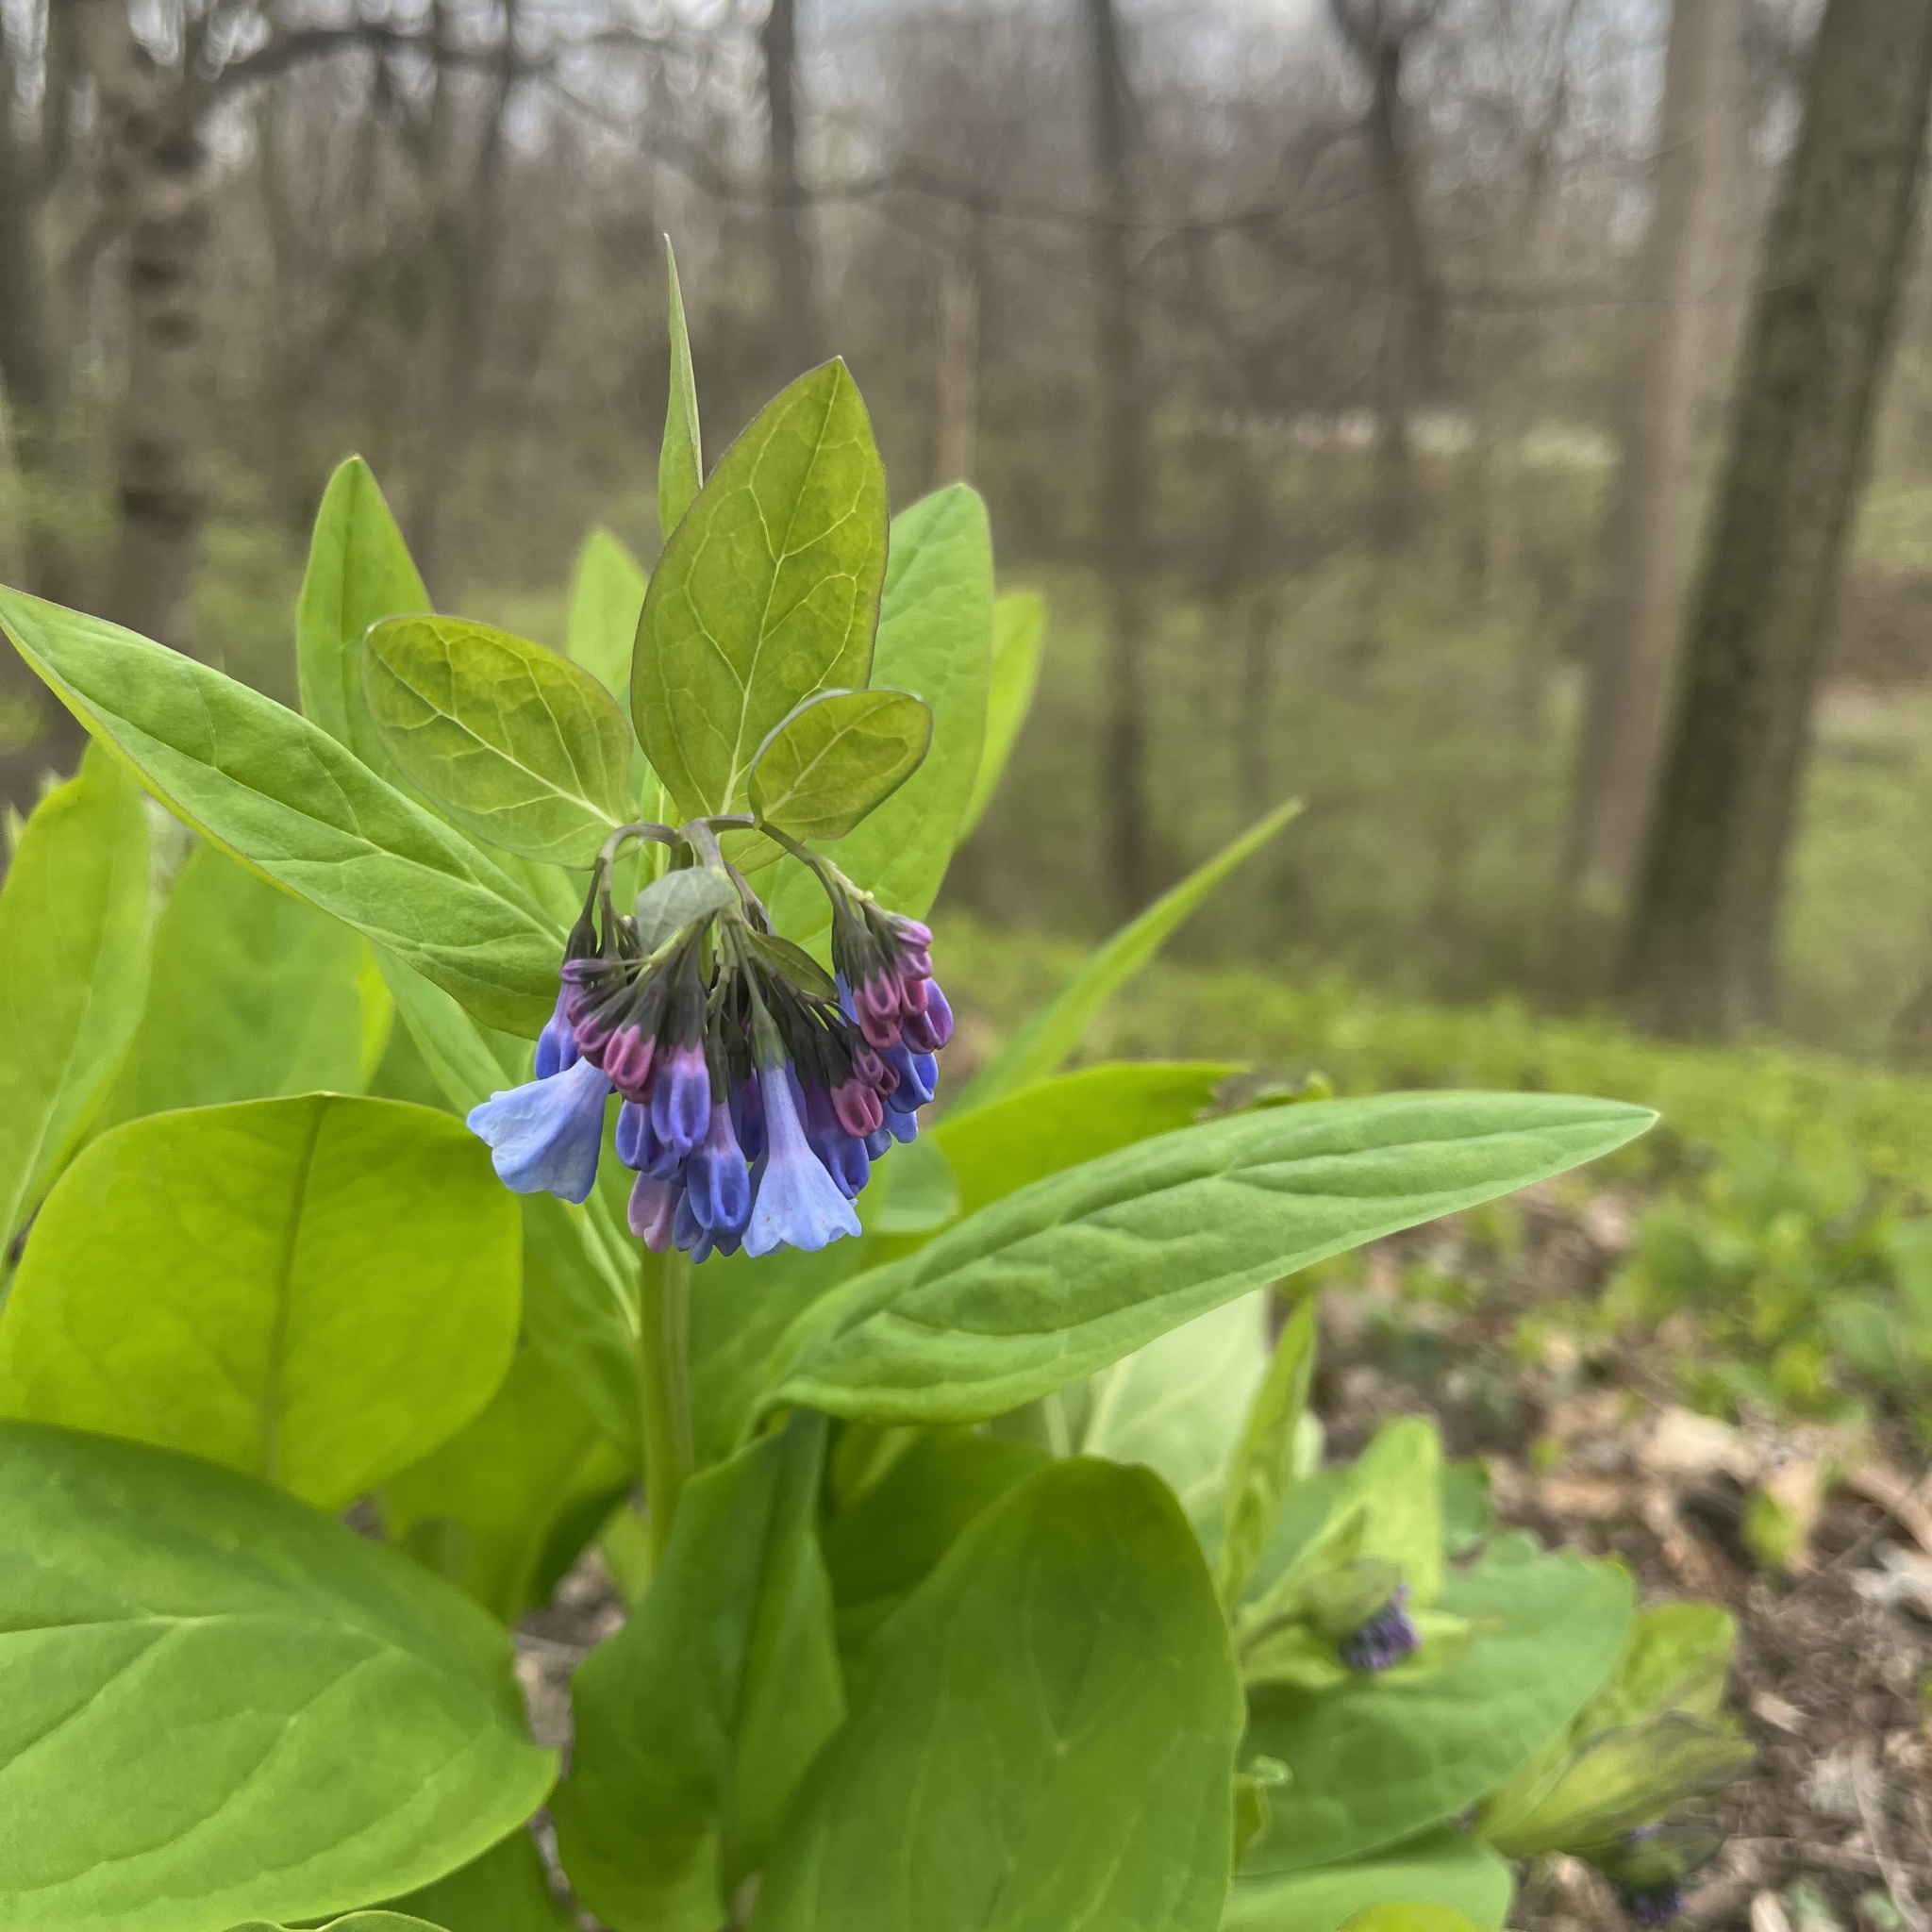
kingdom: Plantae
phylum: Tracheophyta
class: Magnoliopsida
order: Boraginales
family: Boraginaceae
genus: Mertensia
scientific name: Mertensia virginica
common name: Virginia bluebells
